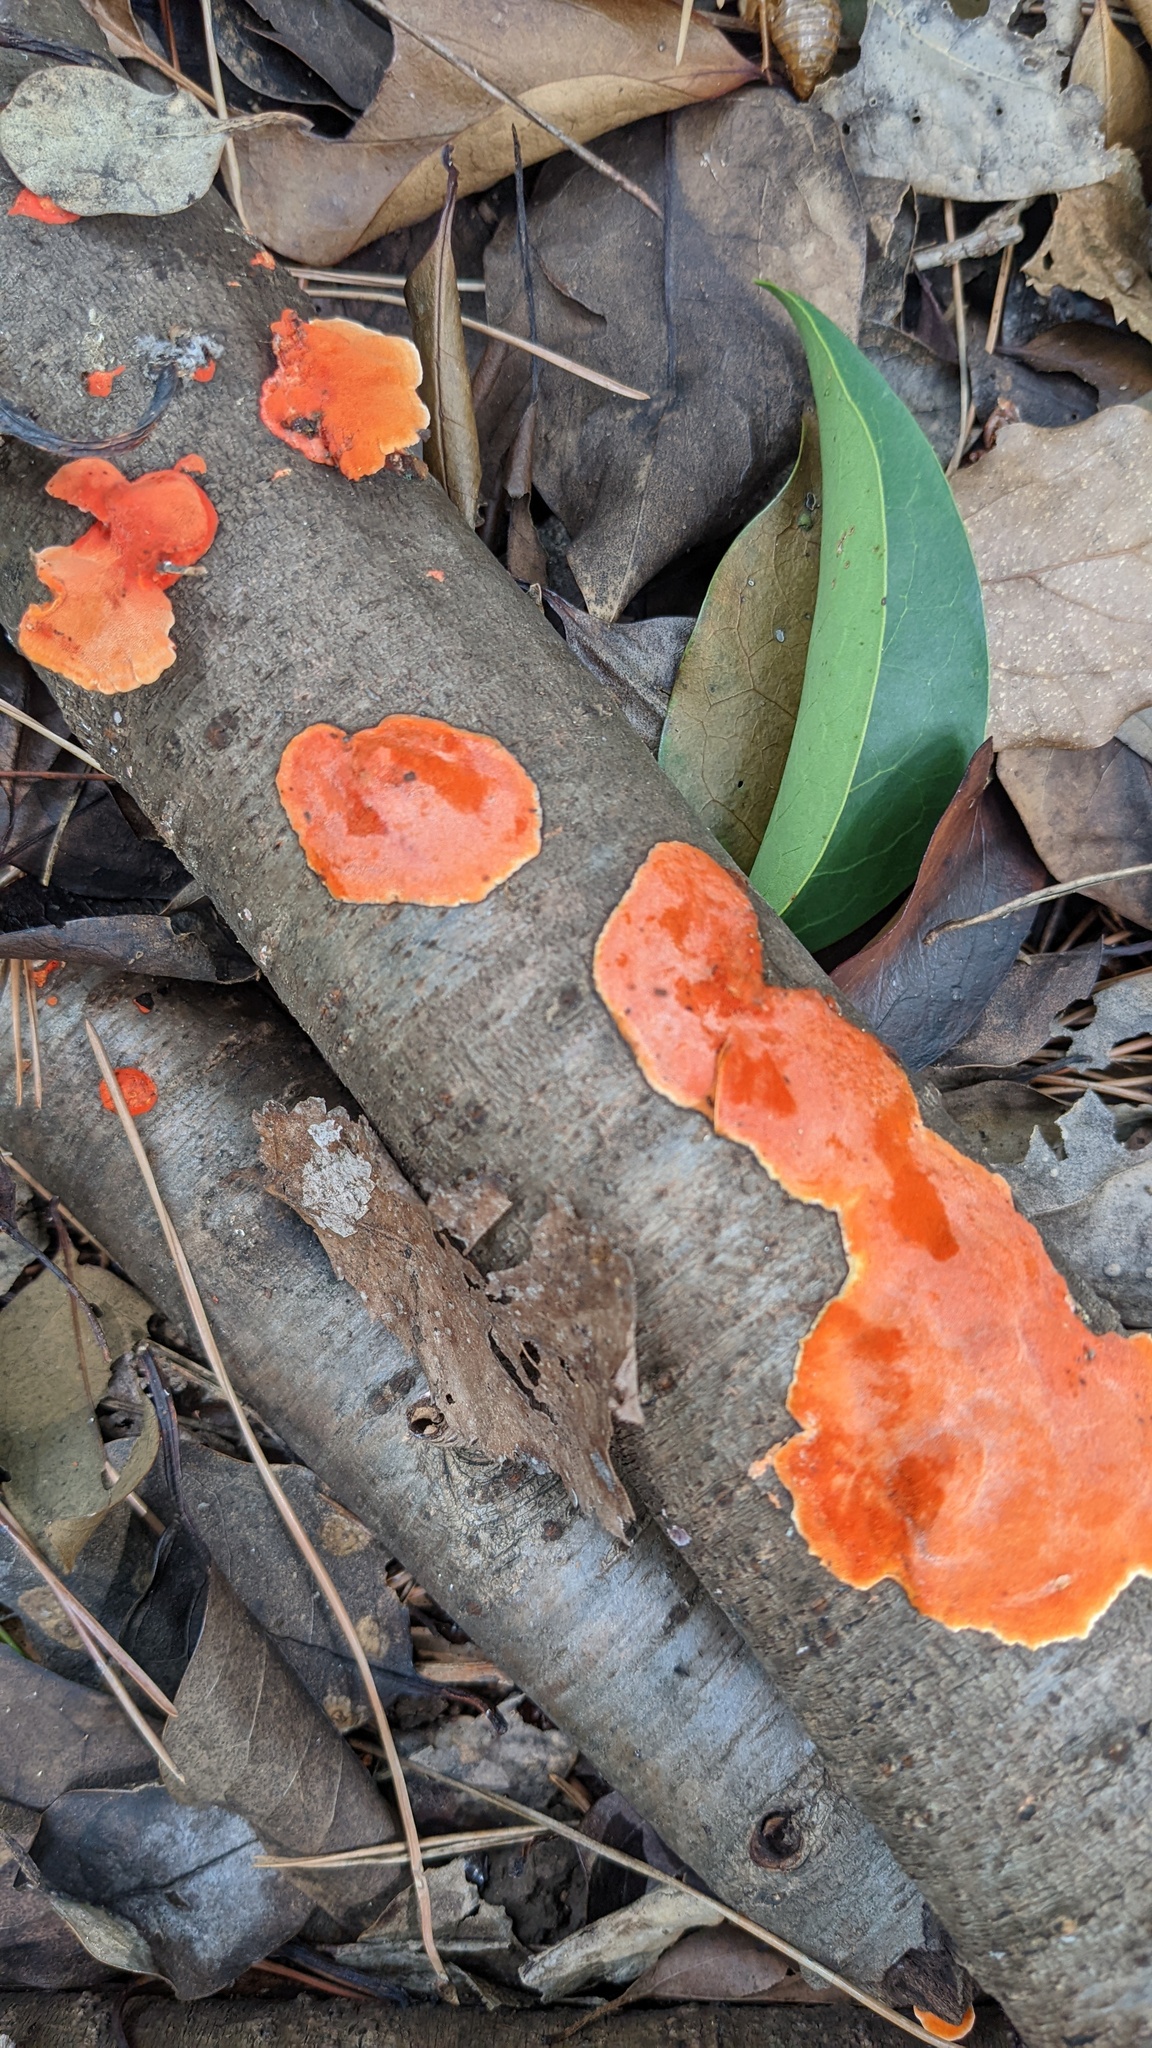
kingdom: Fungi
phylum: Basidiomycota
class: Agaricomycetes
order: Polyporales
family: Polyporaceae
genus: Trametes
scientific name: Trametes coccinea
